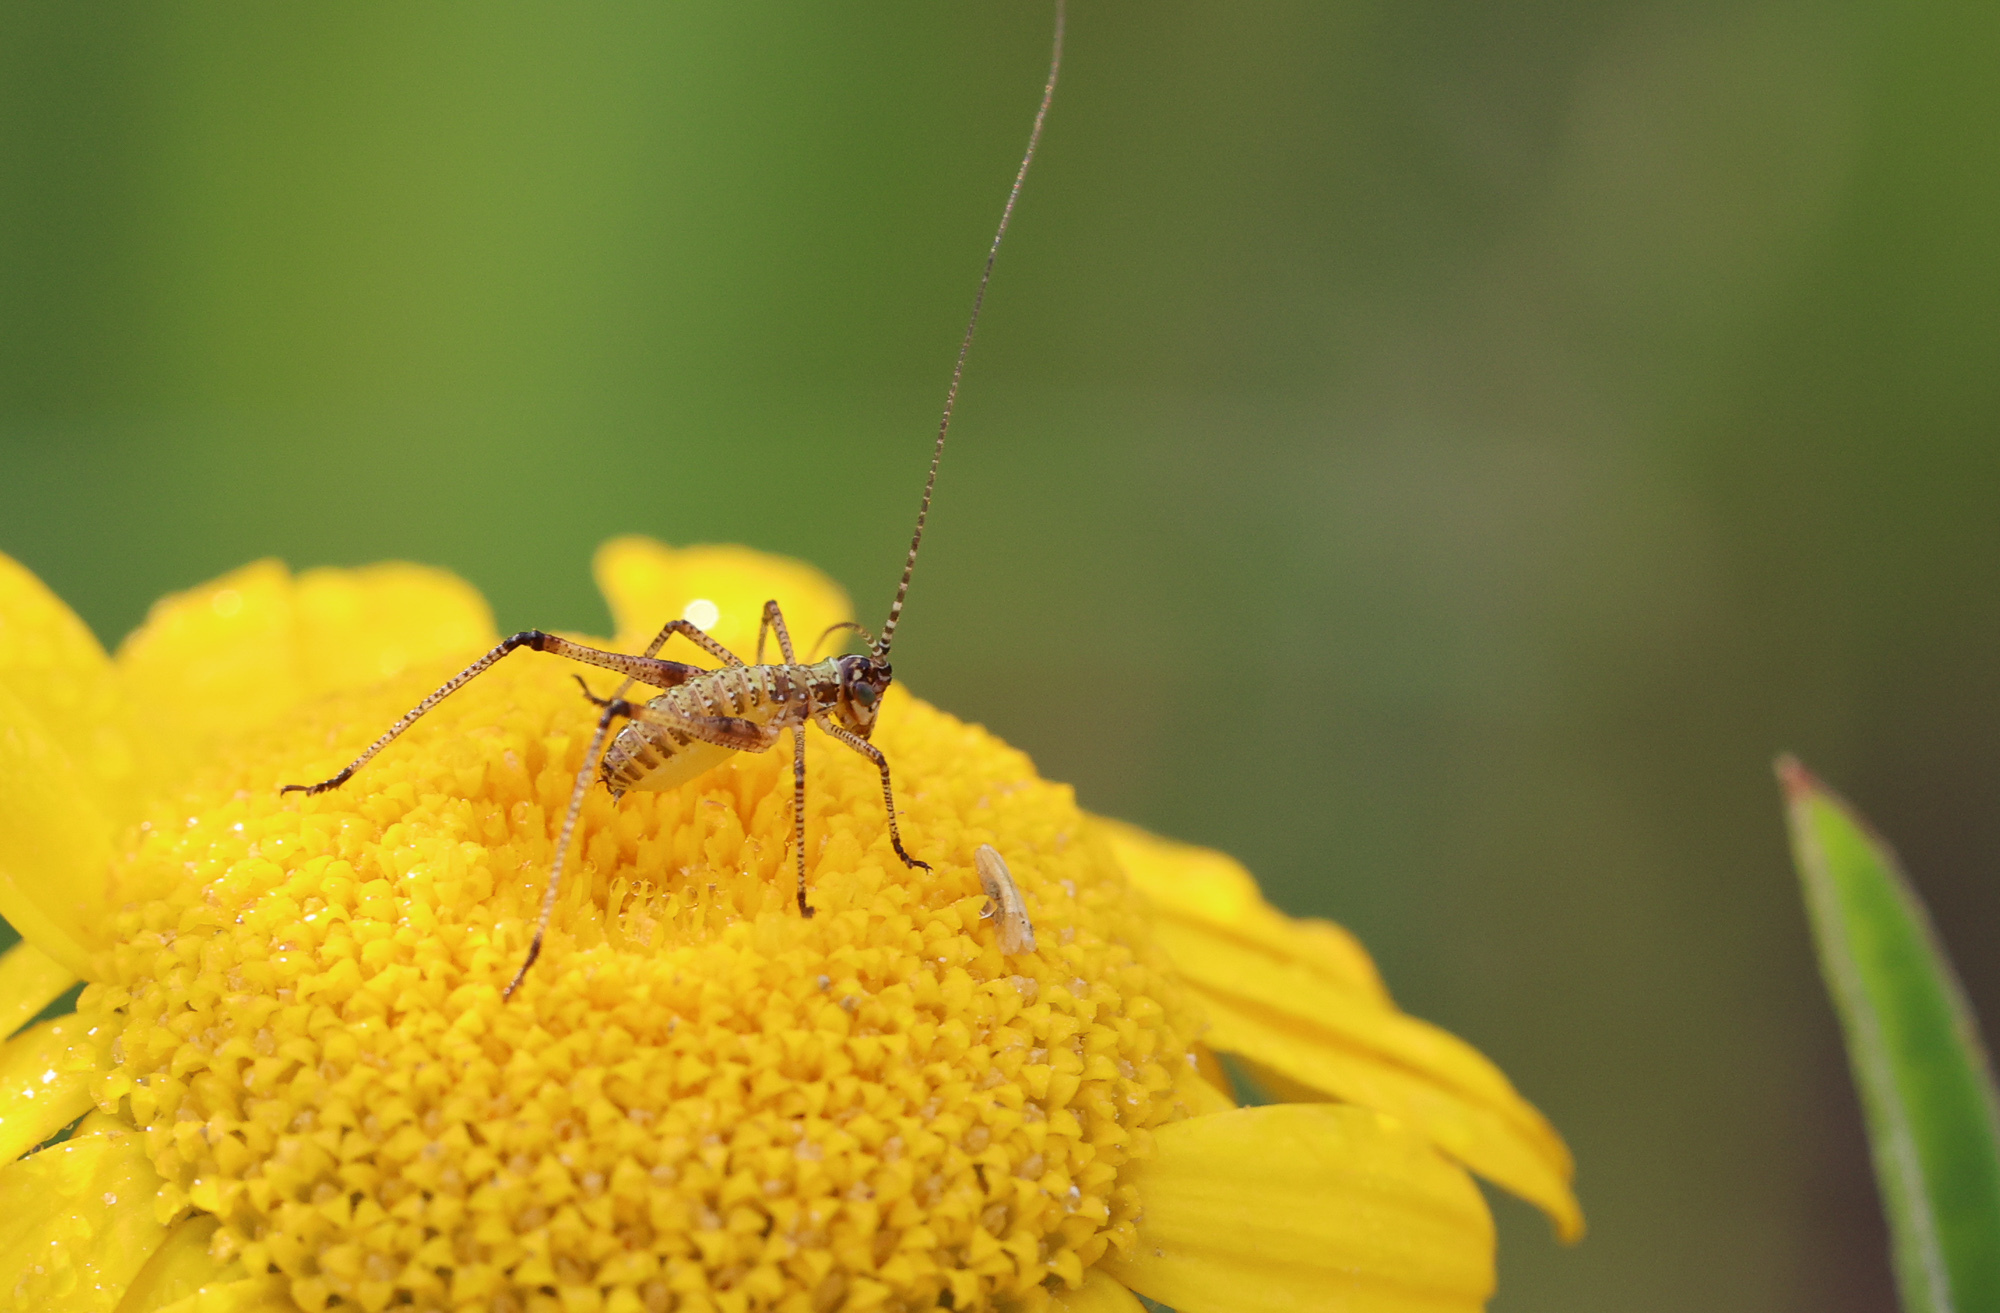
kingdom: Animalia
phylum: Arthropoda
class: Insecta
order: Orthoptera
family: Tettigoniidae
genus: Phaneroptera
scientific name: Phaneroptera falcata
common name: Sickle-bearing bush-cricket
